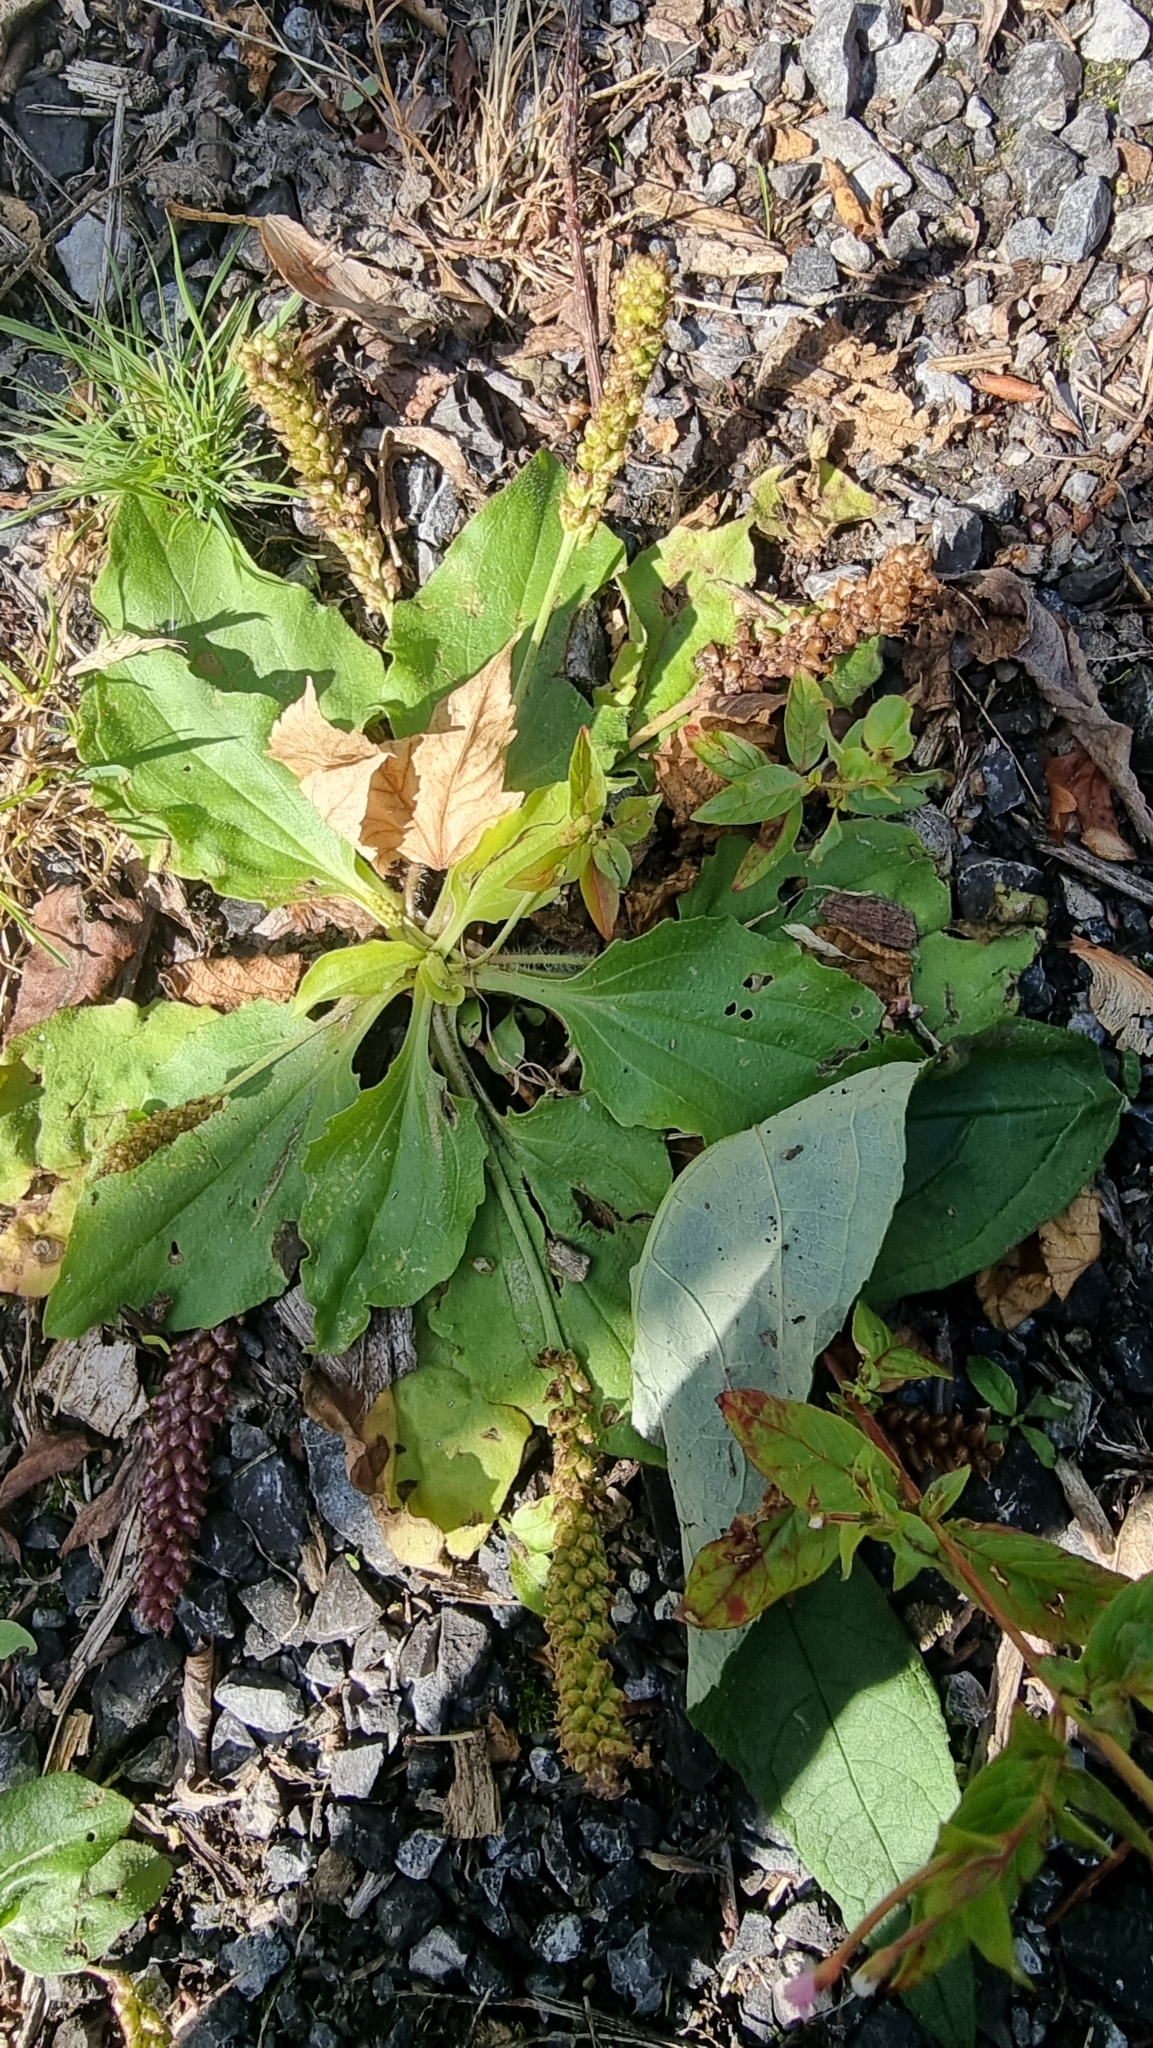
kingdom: Plantae
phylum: Tracheophyta
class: Magnoliopsida
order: Lamiales
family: Plantaginaceae
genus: Plantago
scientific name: Plantago major
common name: Common plantain
